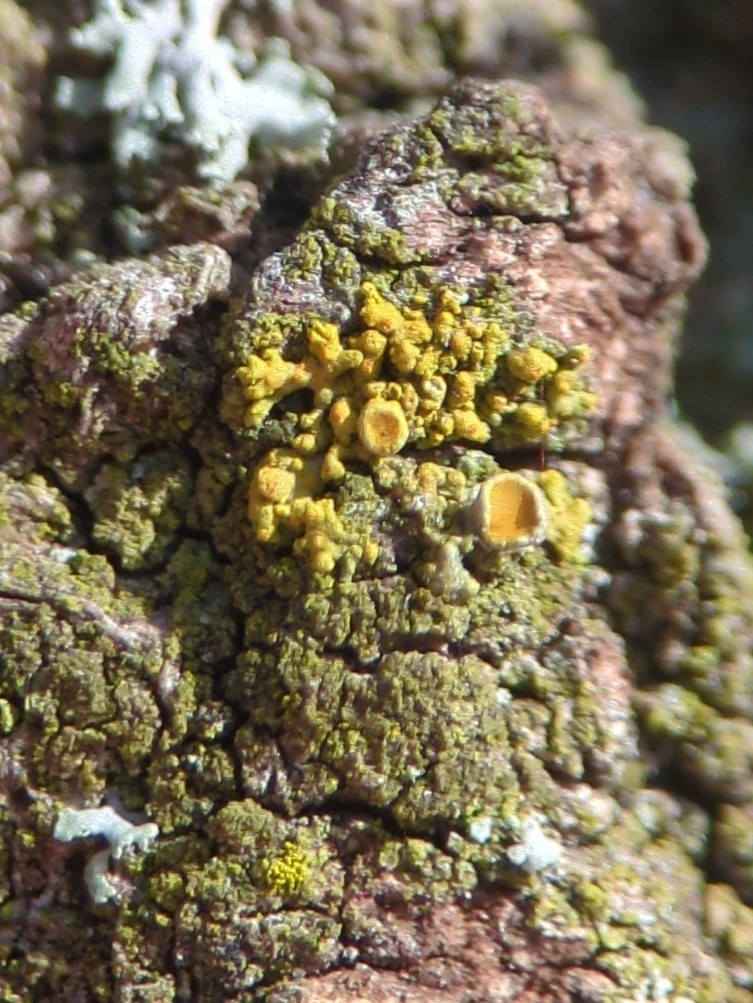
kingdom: Fungi
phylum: Ascomycota
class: Lecanoromycetes
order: Teloschistales
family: Teloschistaceae
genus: Polycauliona
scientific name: Polycauliona polycarpa
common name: Pin-cushion sunburst lichen
